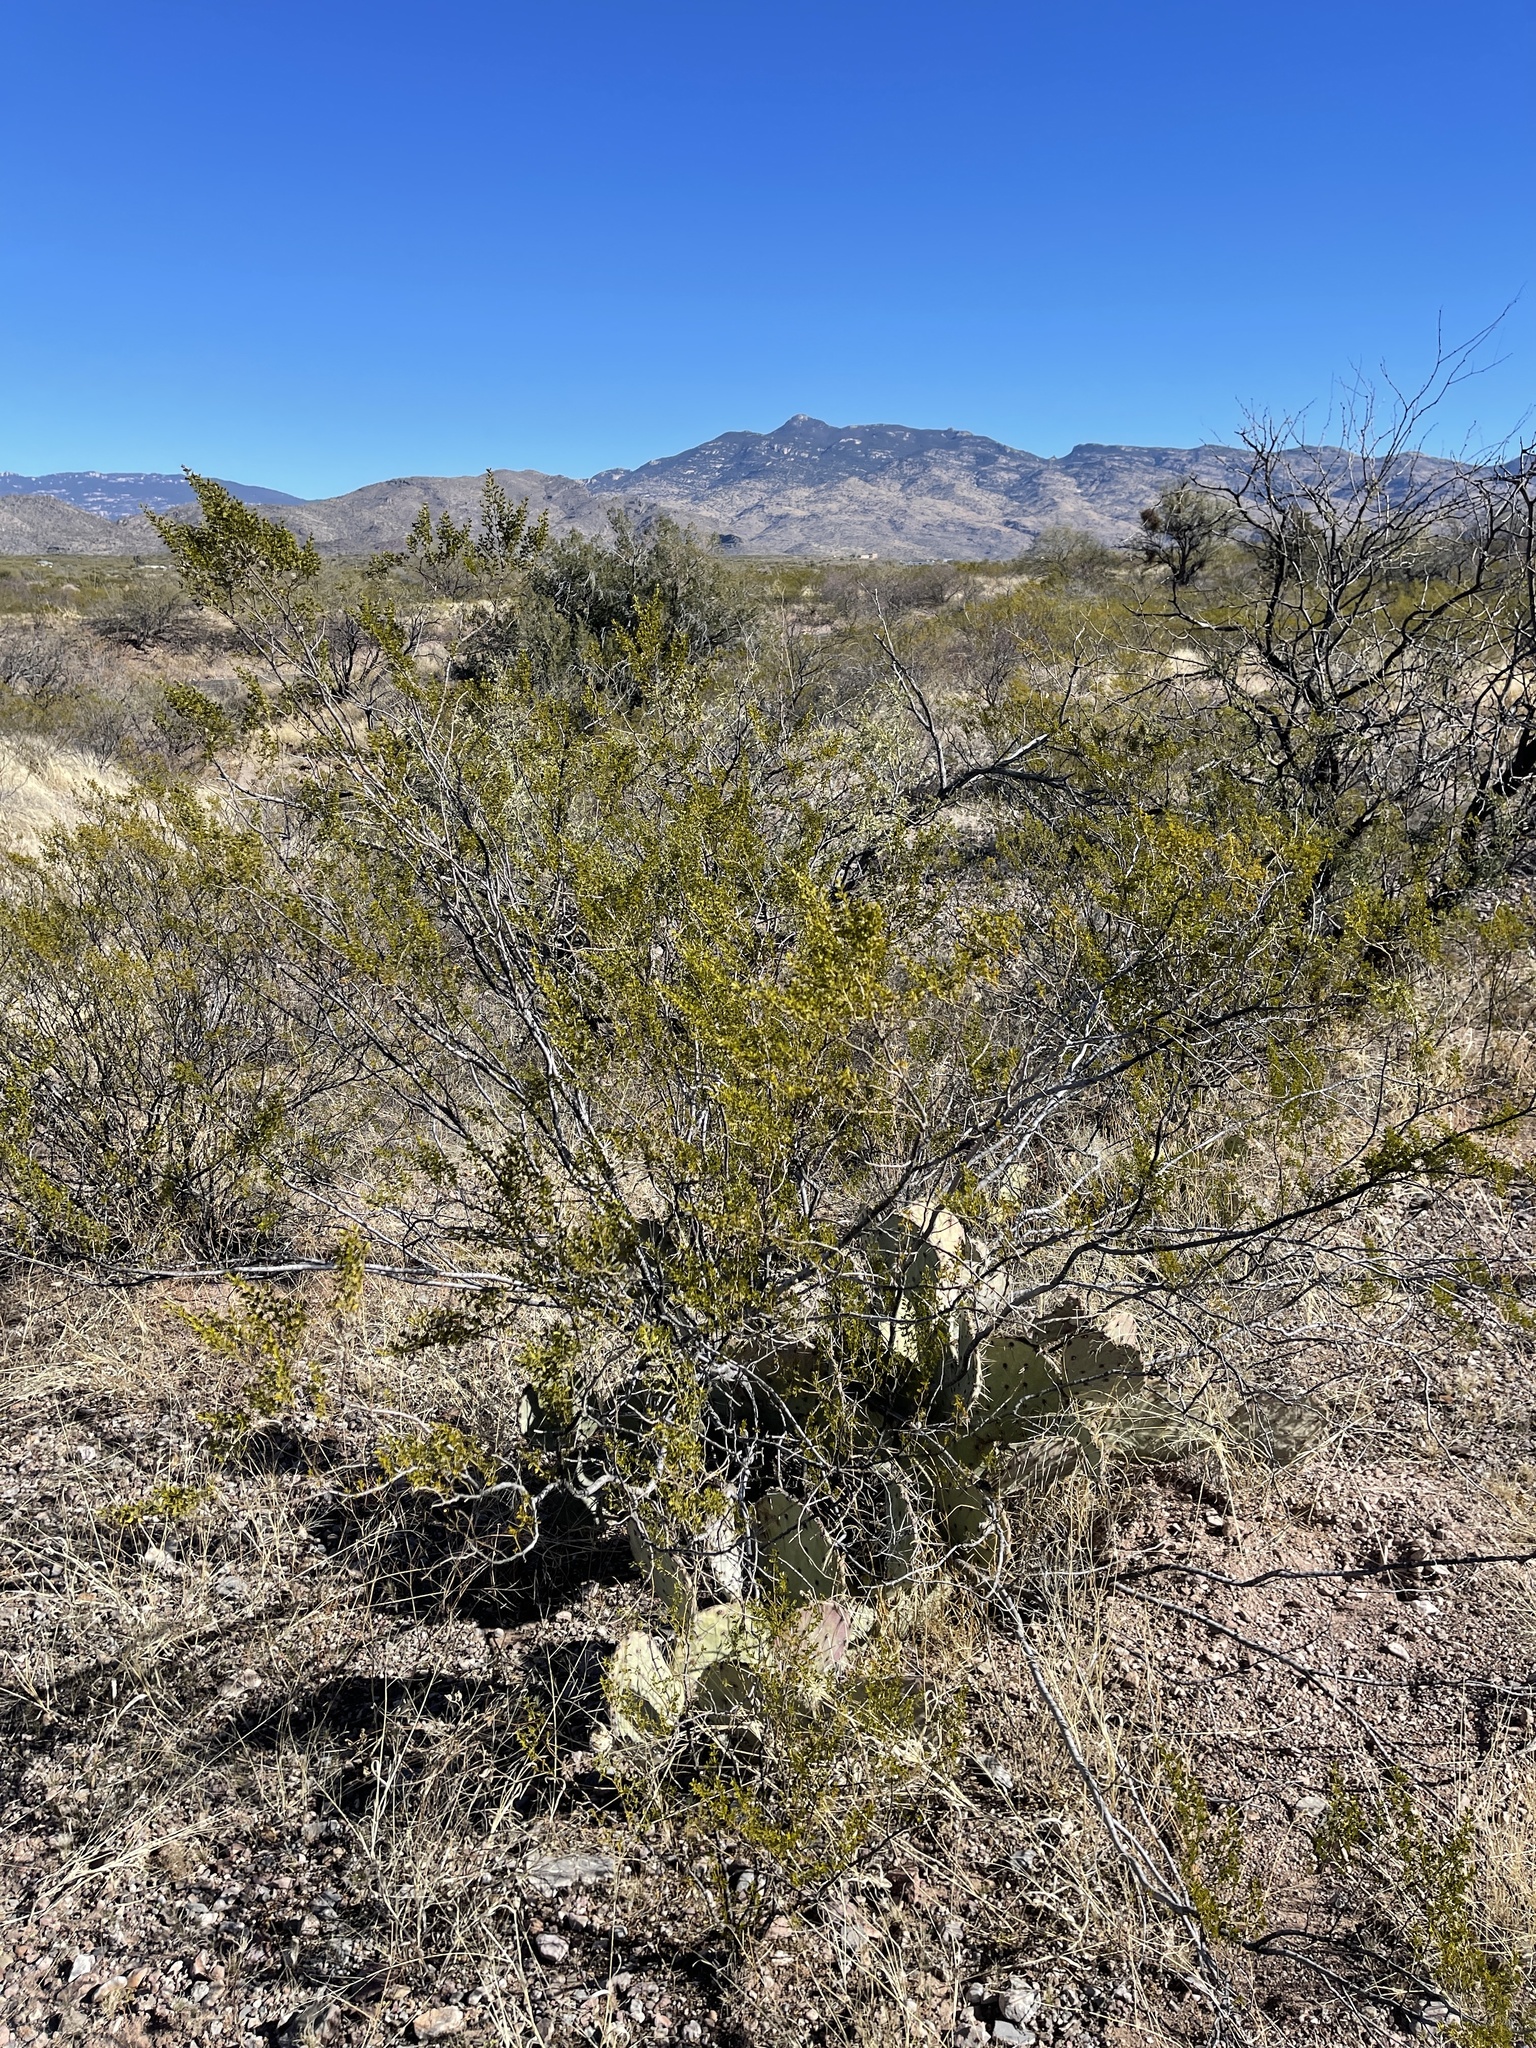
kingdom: Plantae
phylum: Tracheophyta
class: Magnoliopsida
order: Zygophyllales
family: Zygophyllaceae
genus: Larrea
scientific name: Larrea tridentata
